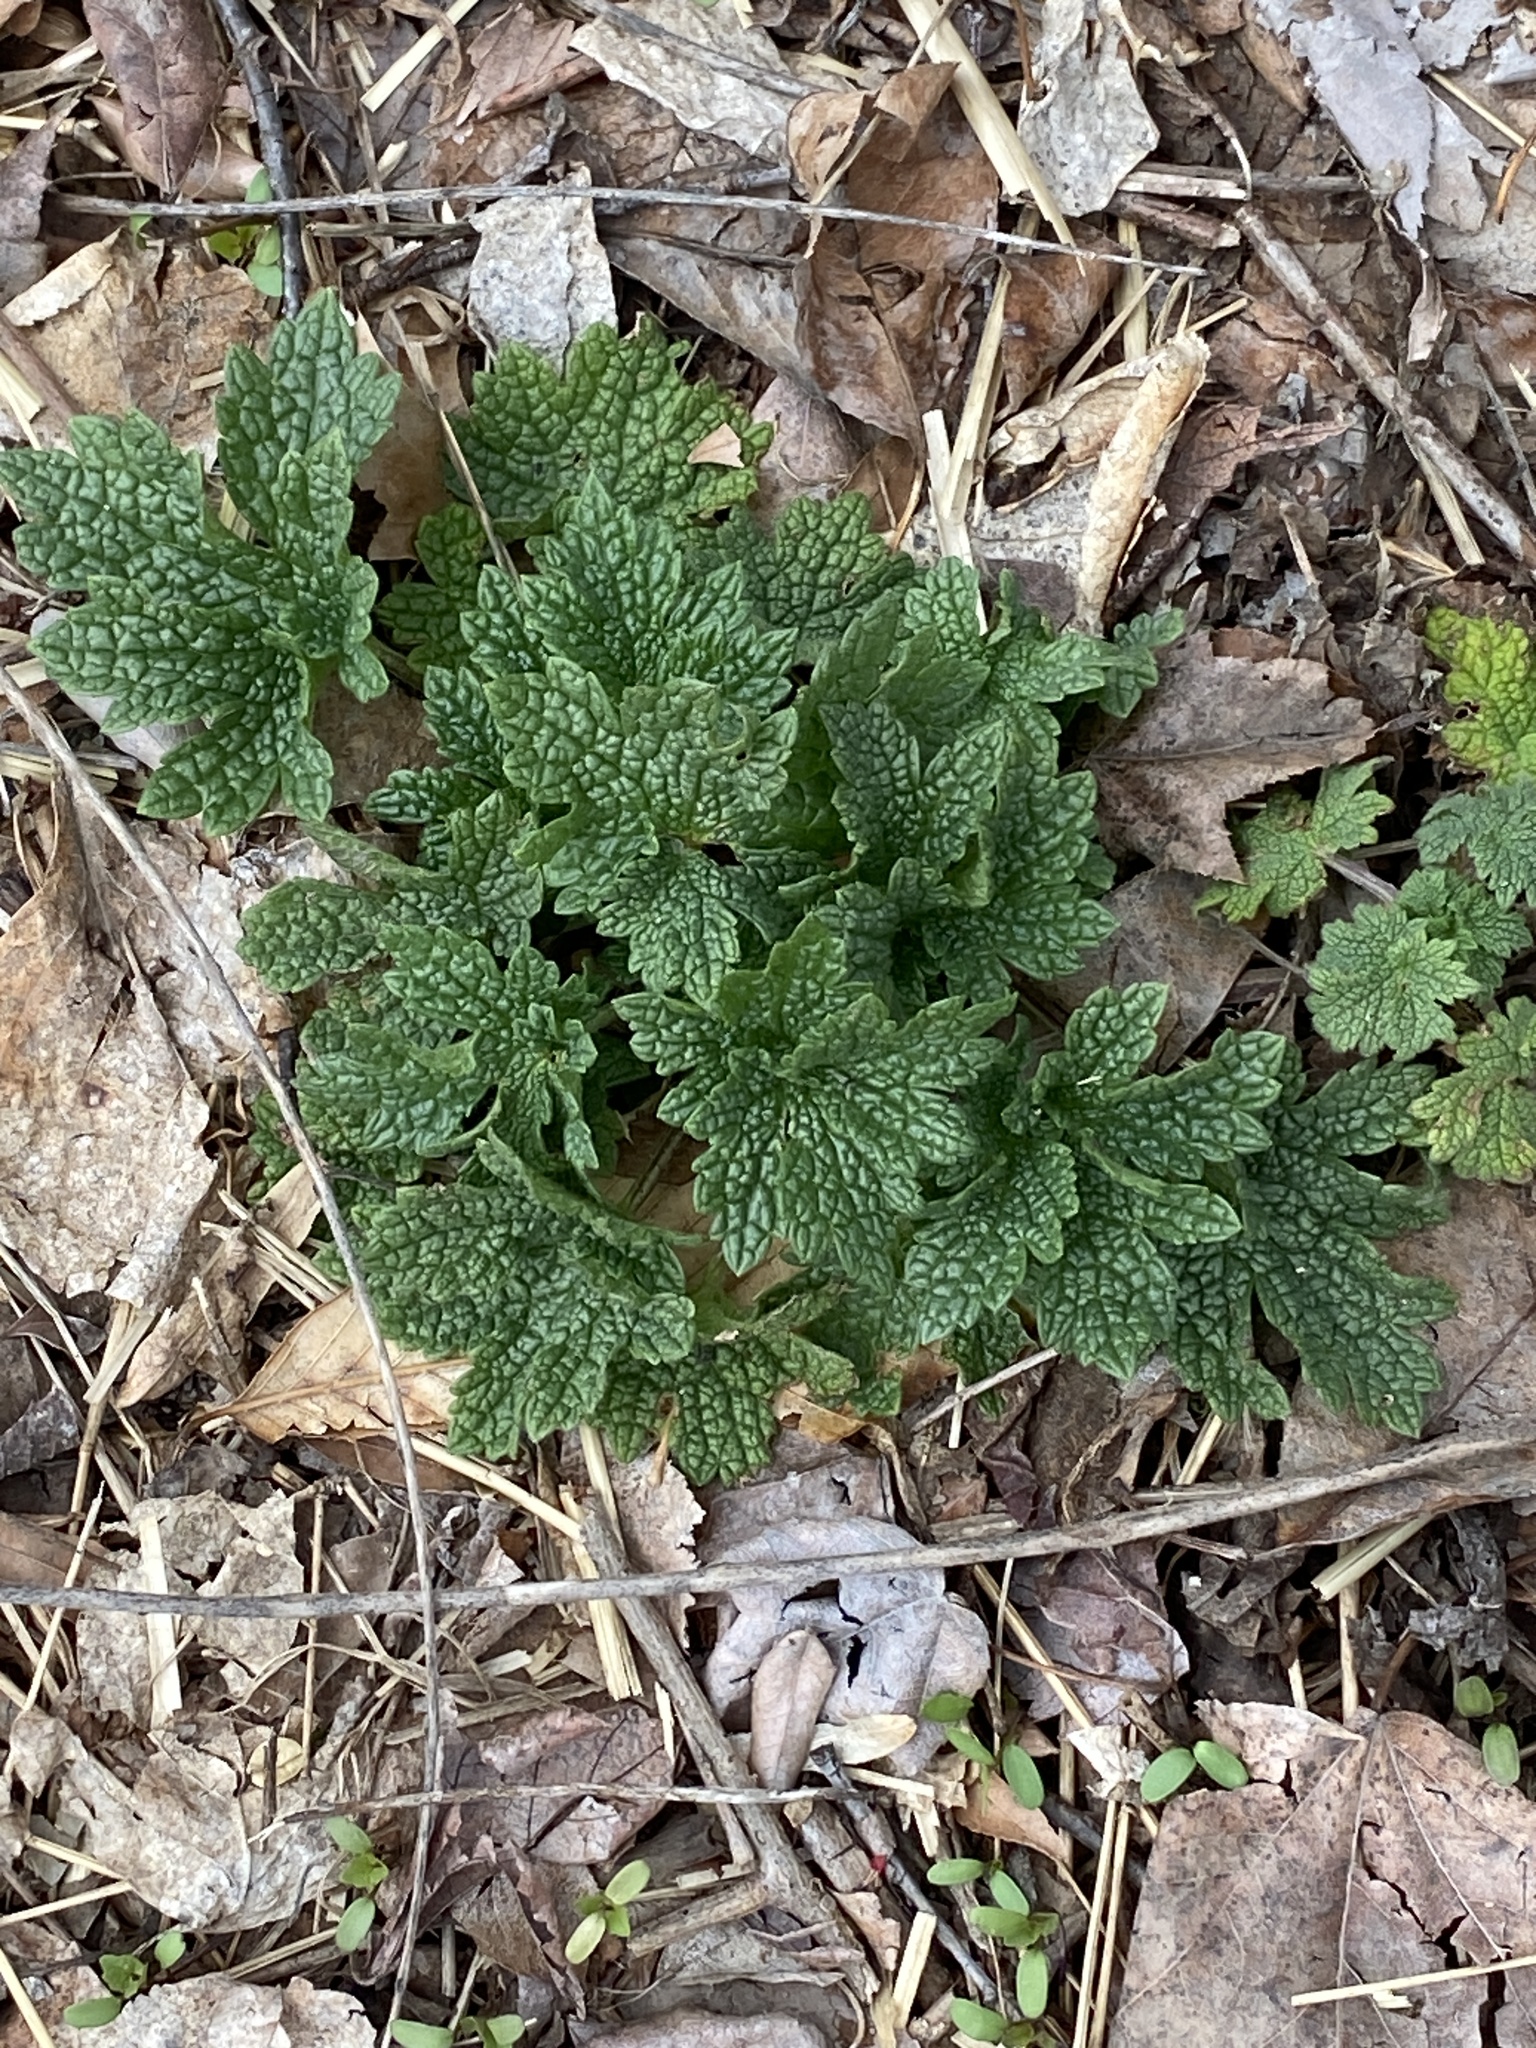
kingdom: Plantae
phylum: Tracheophyta
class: Magnoliopsida
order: Lamiales
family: Lamiaceae
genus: Leonurus
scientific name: Leonurus cardiaca
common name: Motherwort
